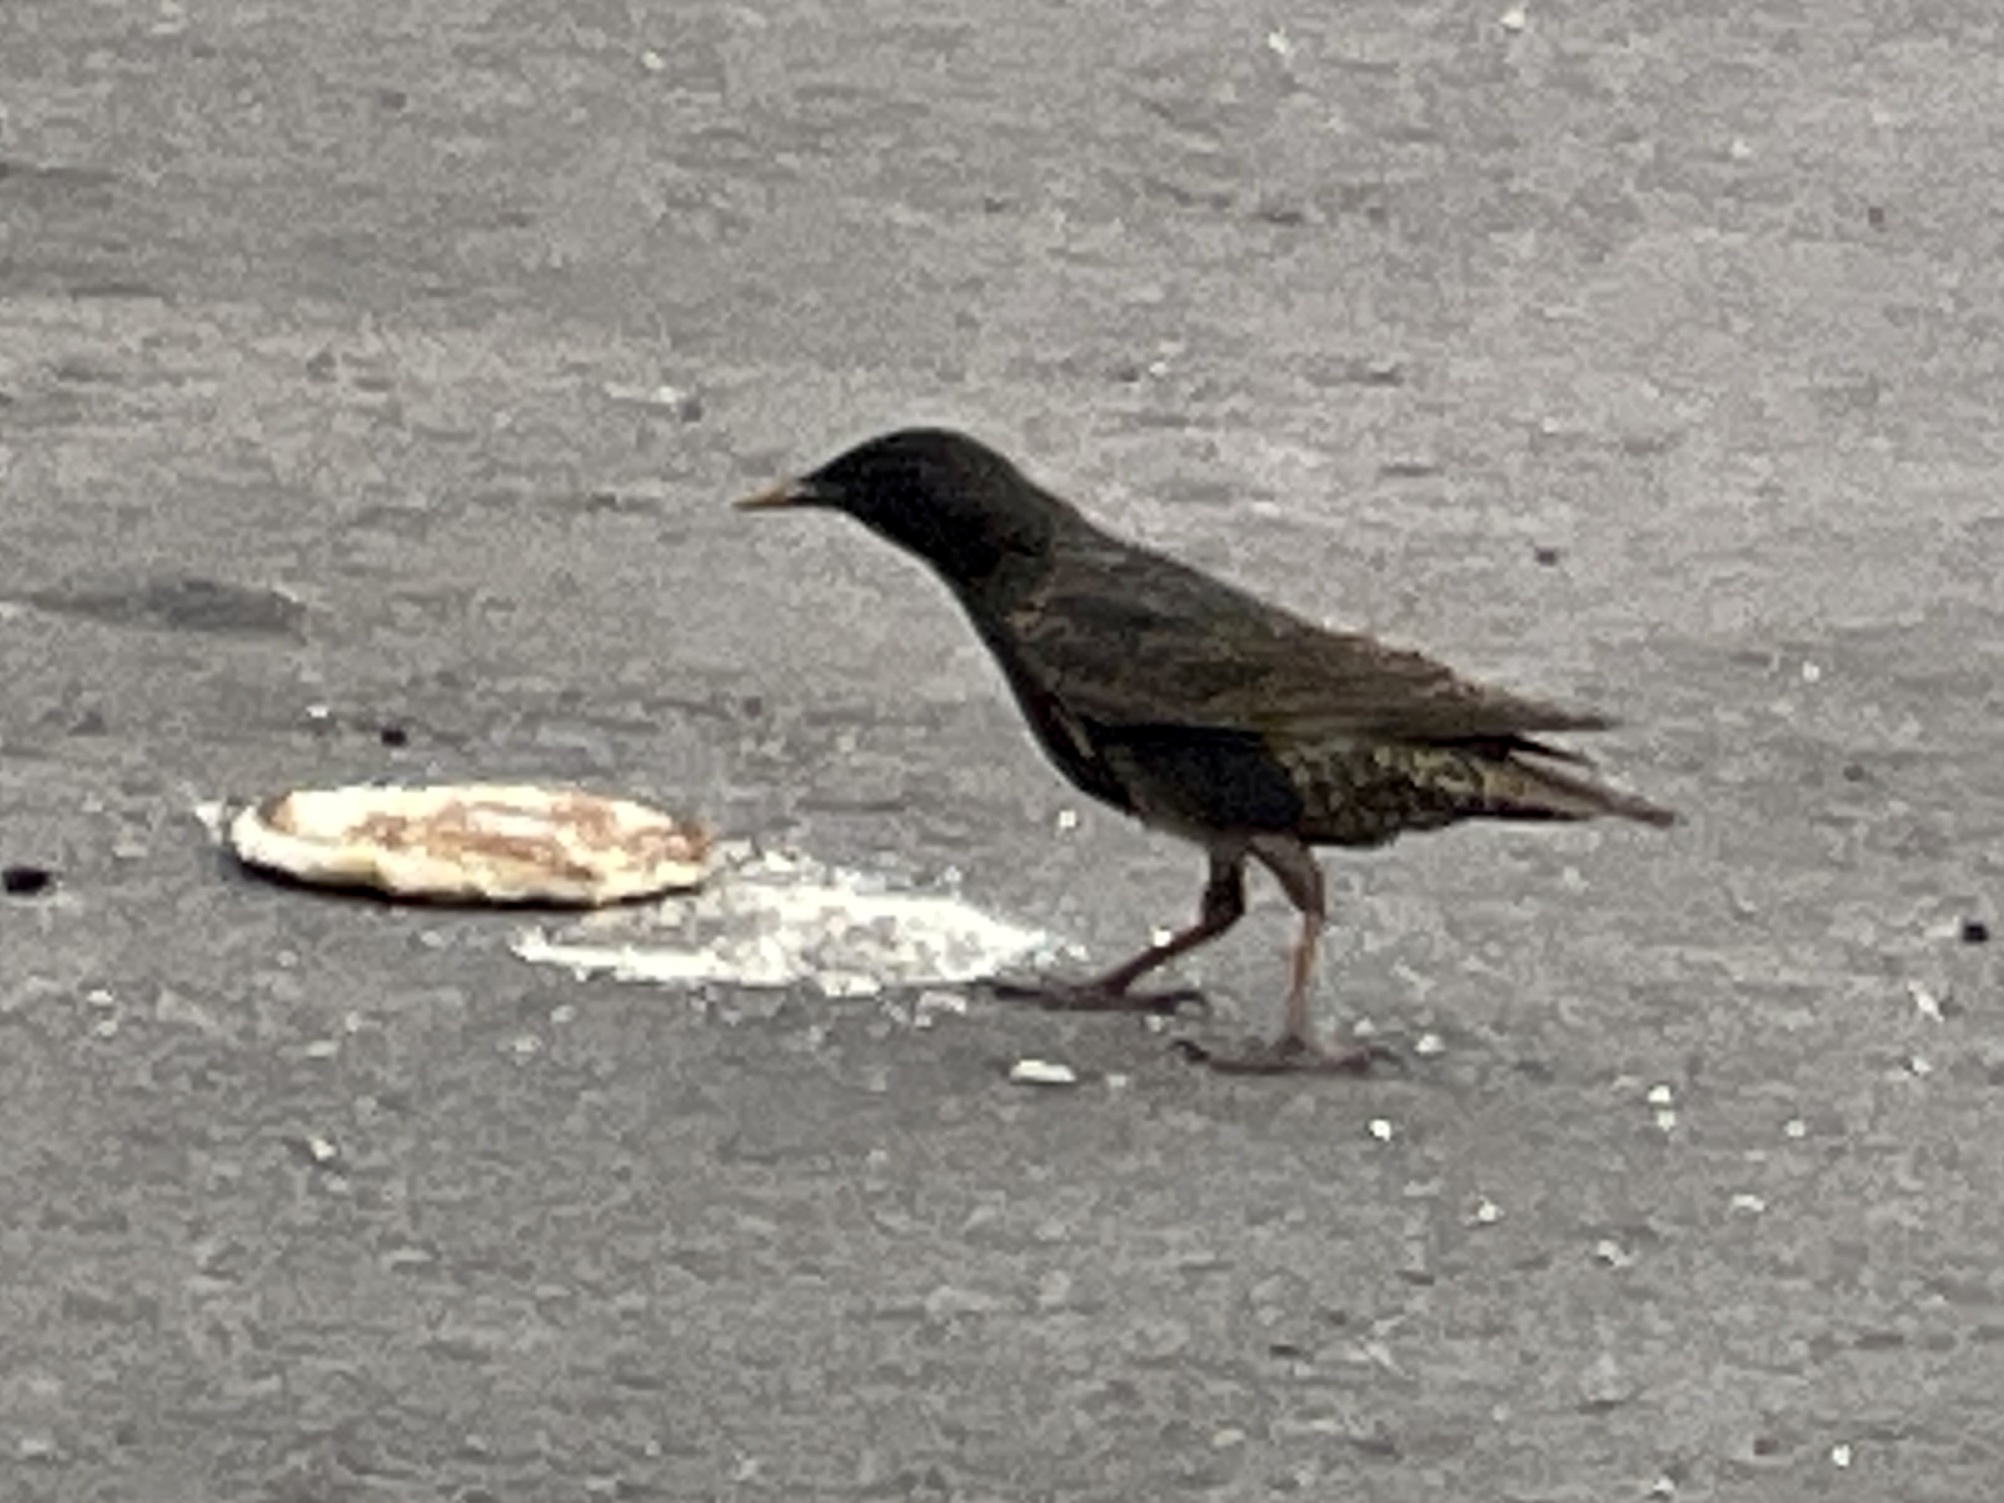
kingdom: Animalia
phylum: Chordata
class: Aves
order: Passeriformes
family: Sturnidae
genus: Sturnus
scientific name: Sturnus vulgaris
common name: Common starling
